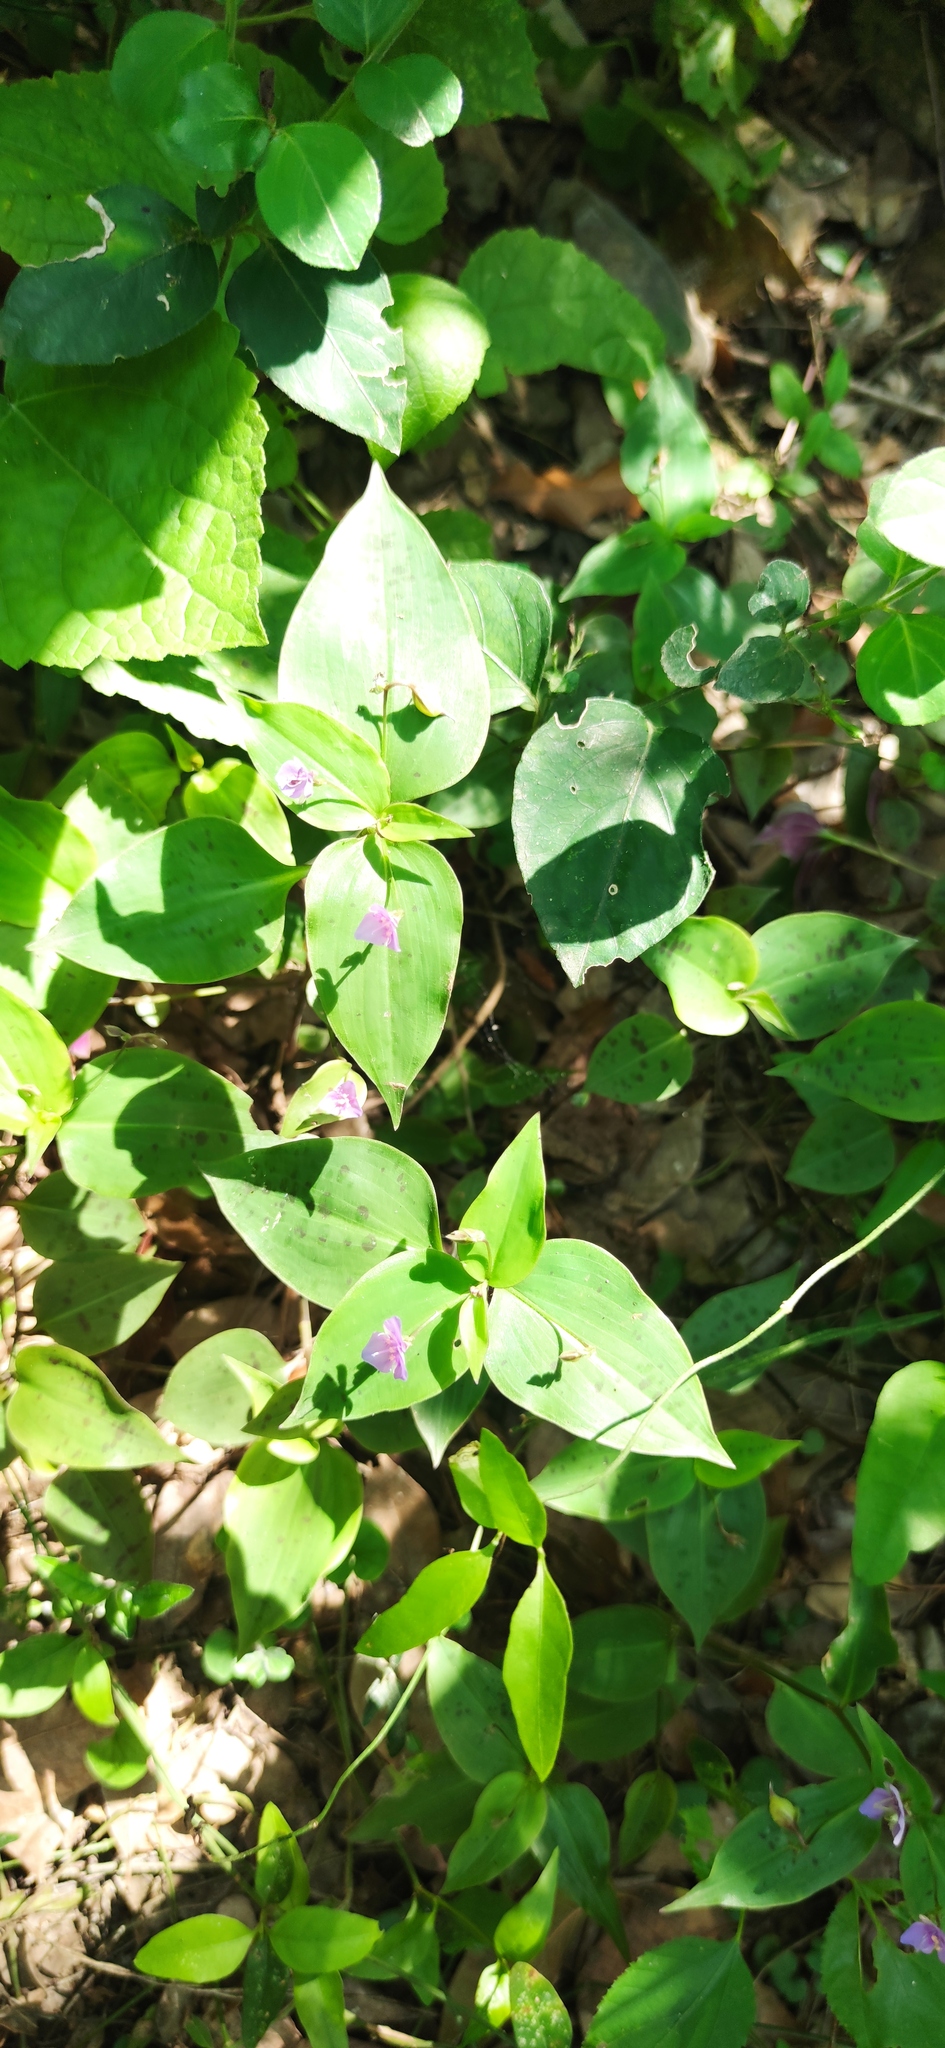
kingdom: Plantae
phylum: Tracheophyta
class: Liliopsida
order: Commelinales
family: Commelinaceae
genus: Tinantia
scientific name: Tinantia pringlei
